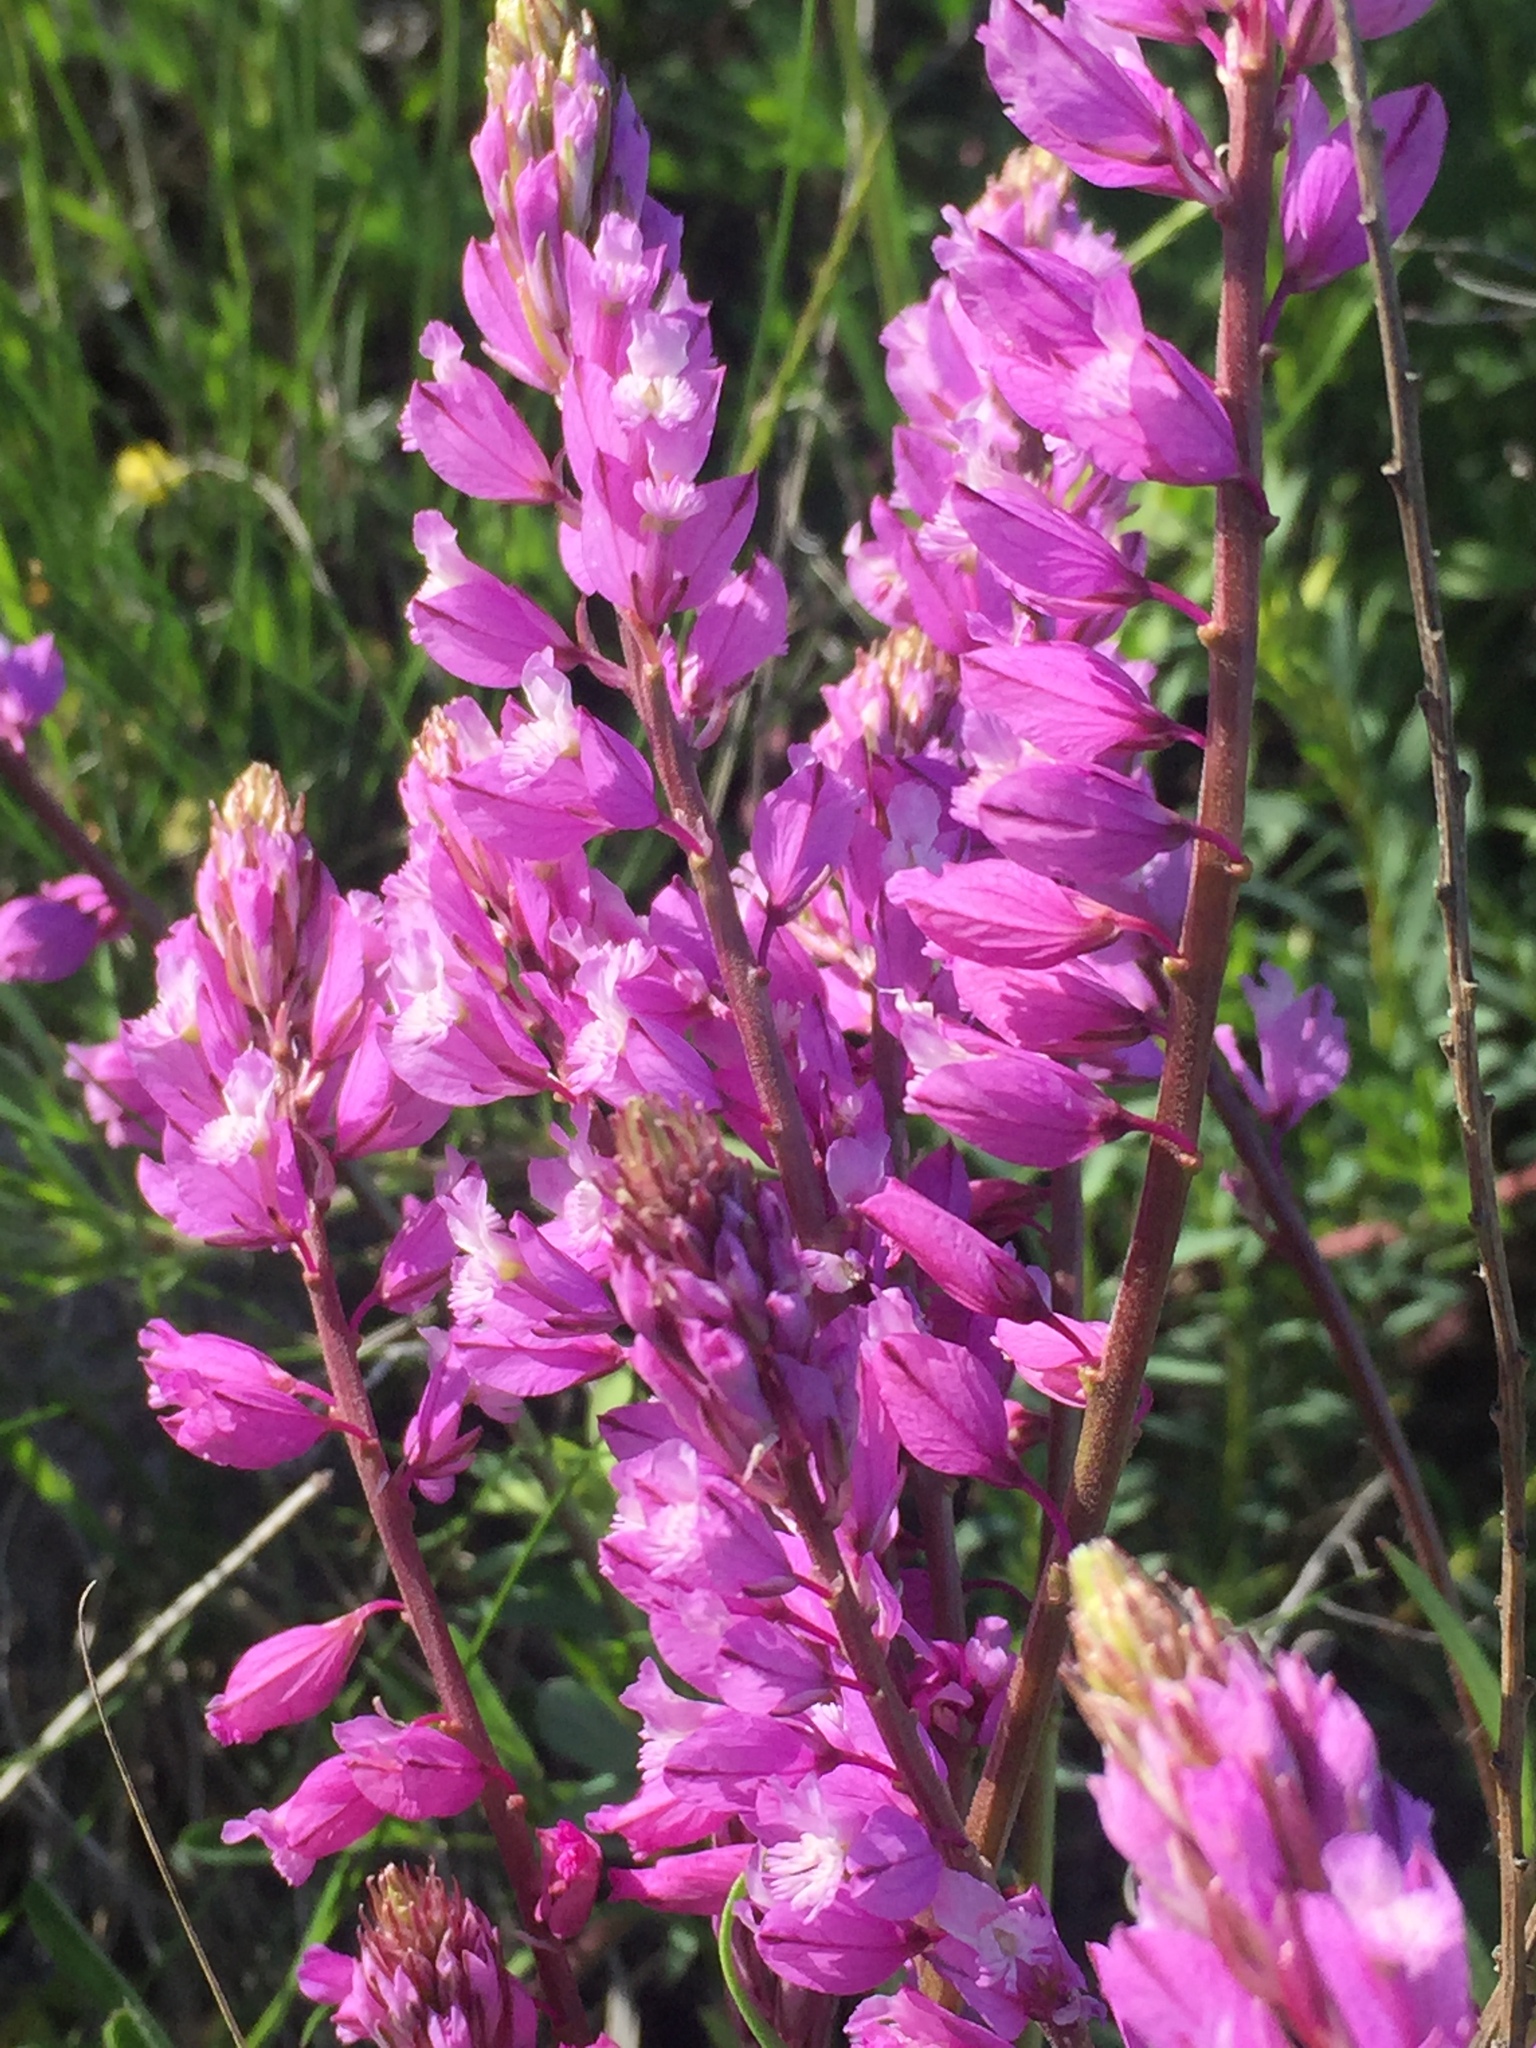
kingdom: Plantae
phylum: Tracheophyta
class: Magnoliopsida
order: Fabales
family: Polygalaceae
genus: Polygala
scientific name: Polygala nicaeensis
